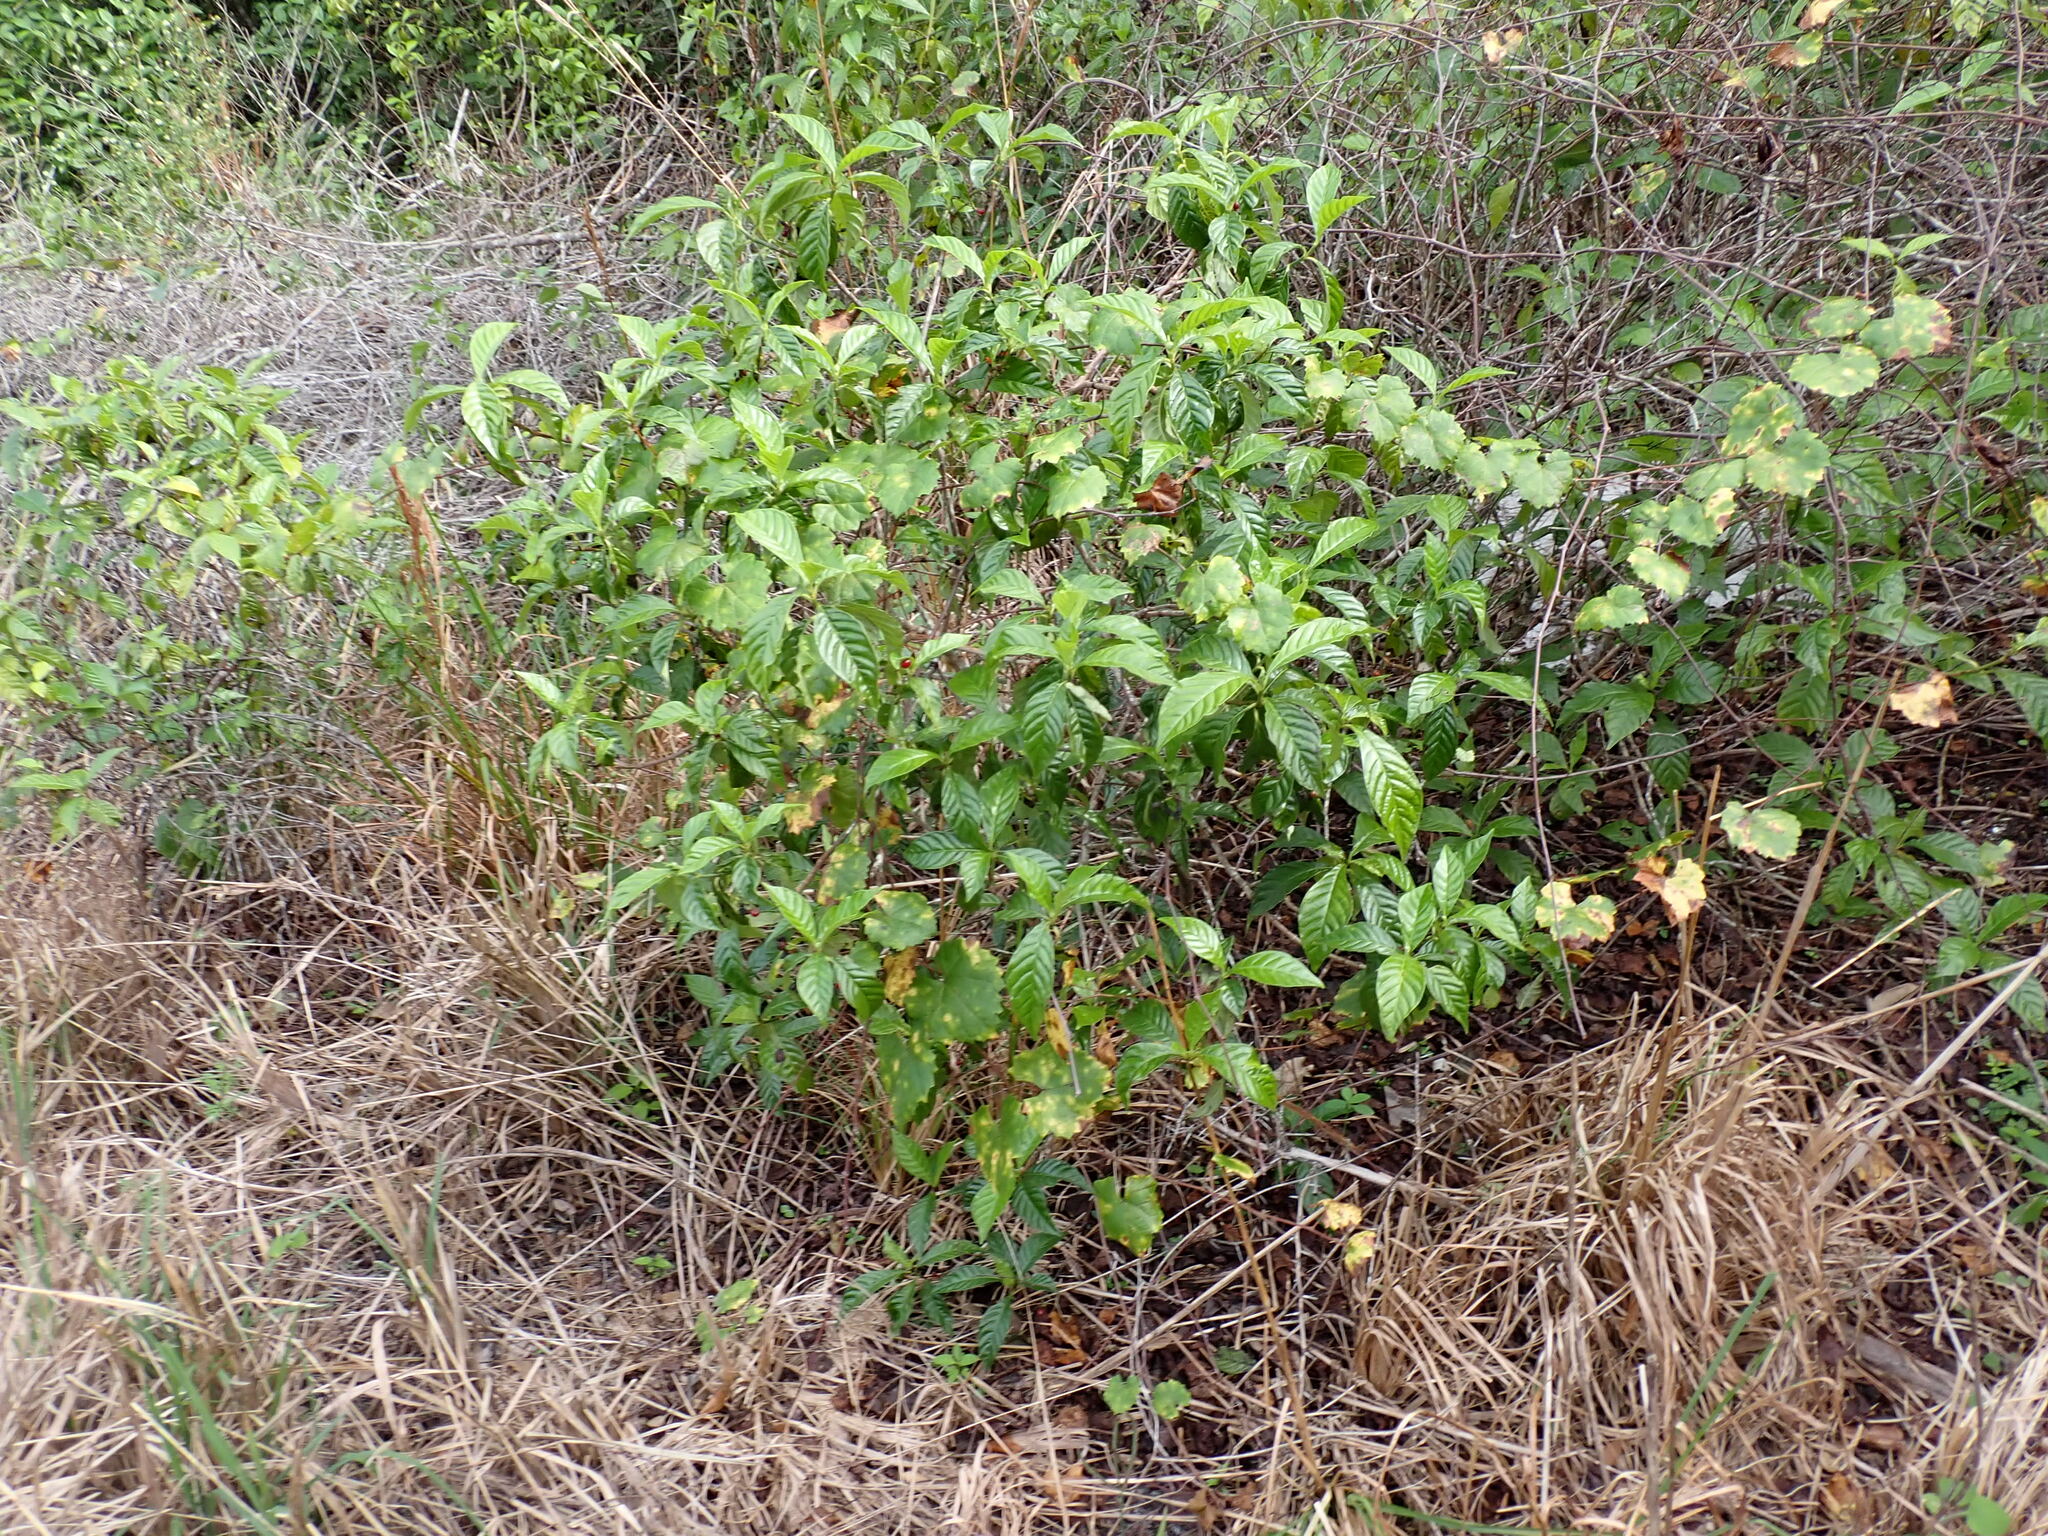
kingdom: Plantae
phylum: Tracheophyta
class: Magnoliopsida
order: Gentianales
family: Rubiaceae
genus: Psychotria
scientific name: Psychotria nervosa
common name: Bastard cankerberry
